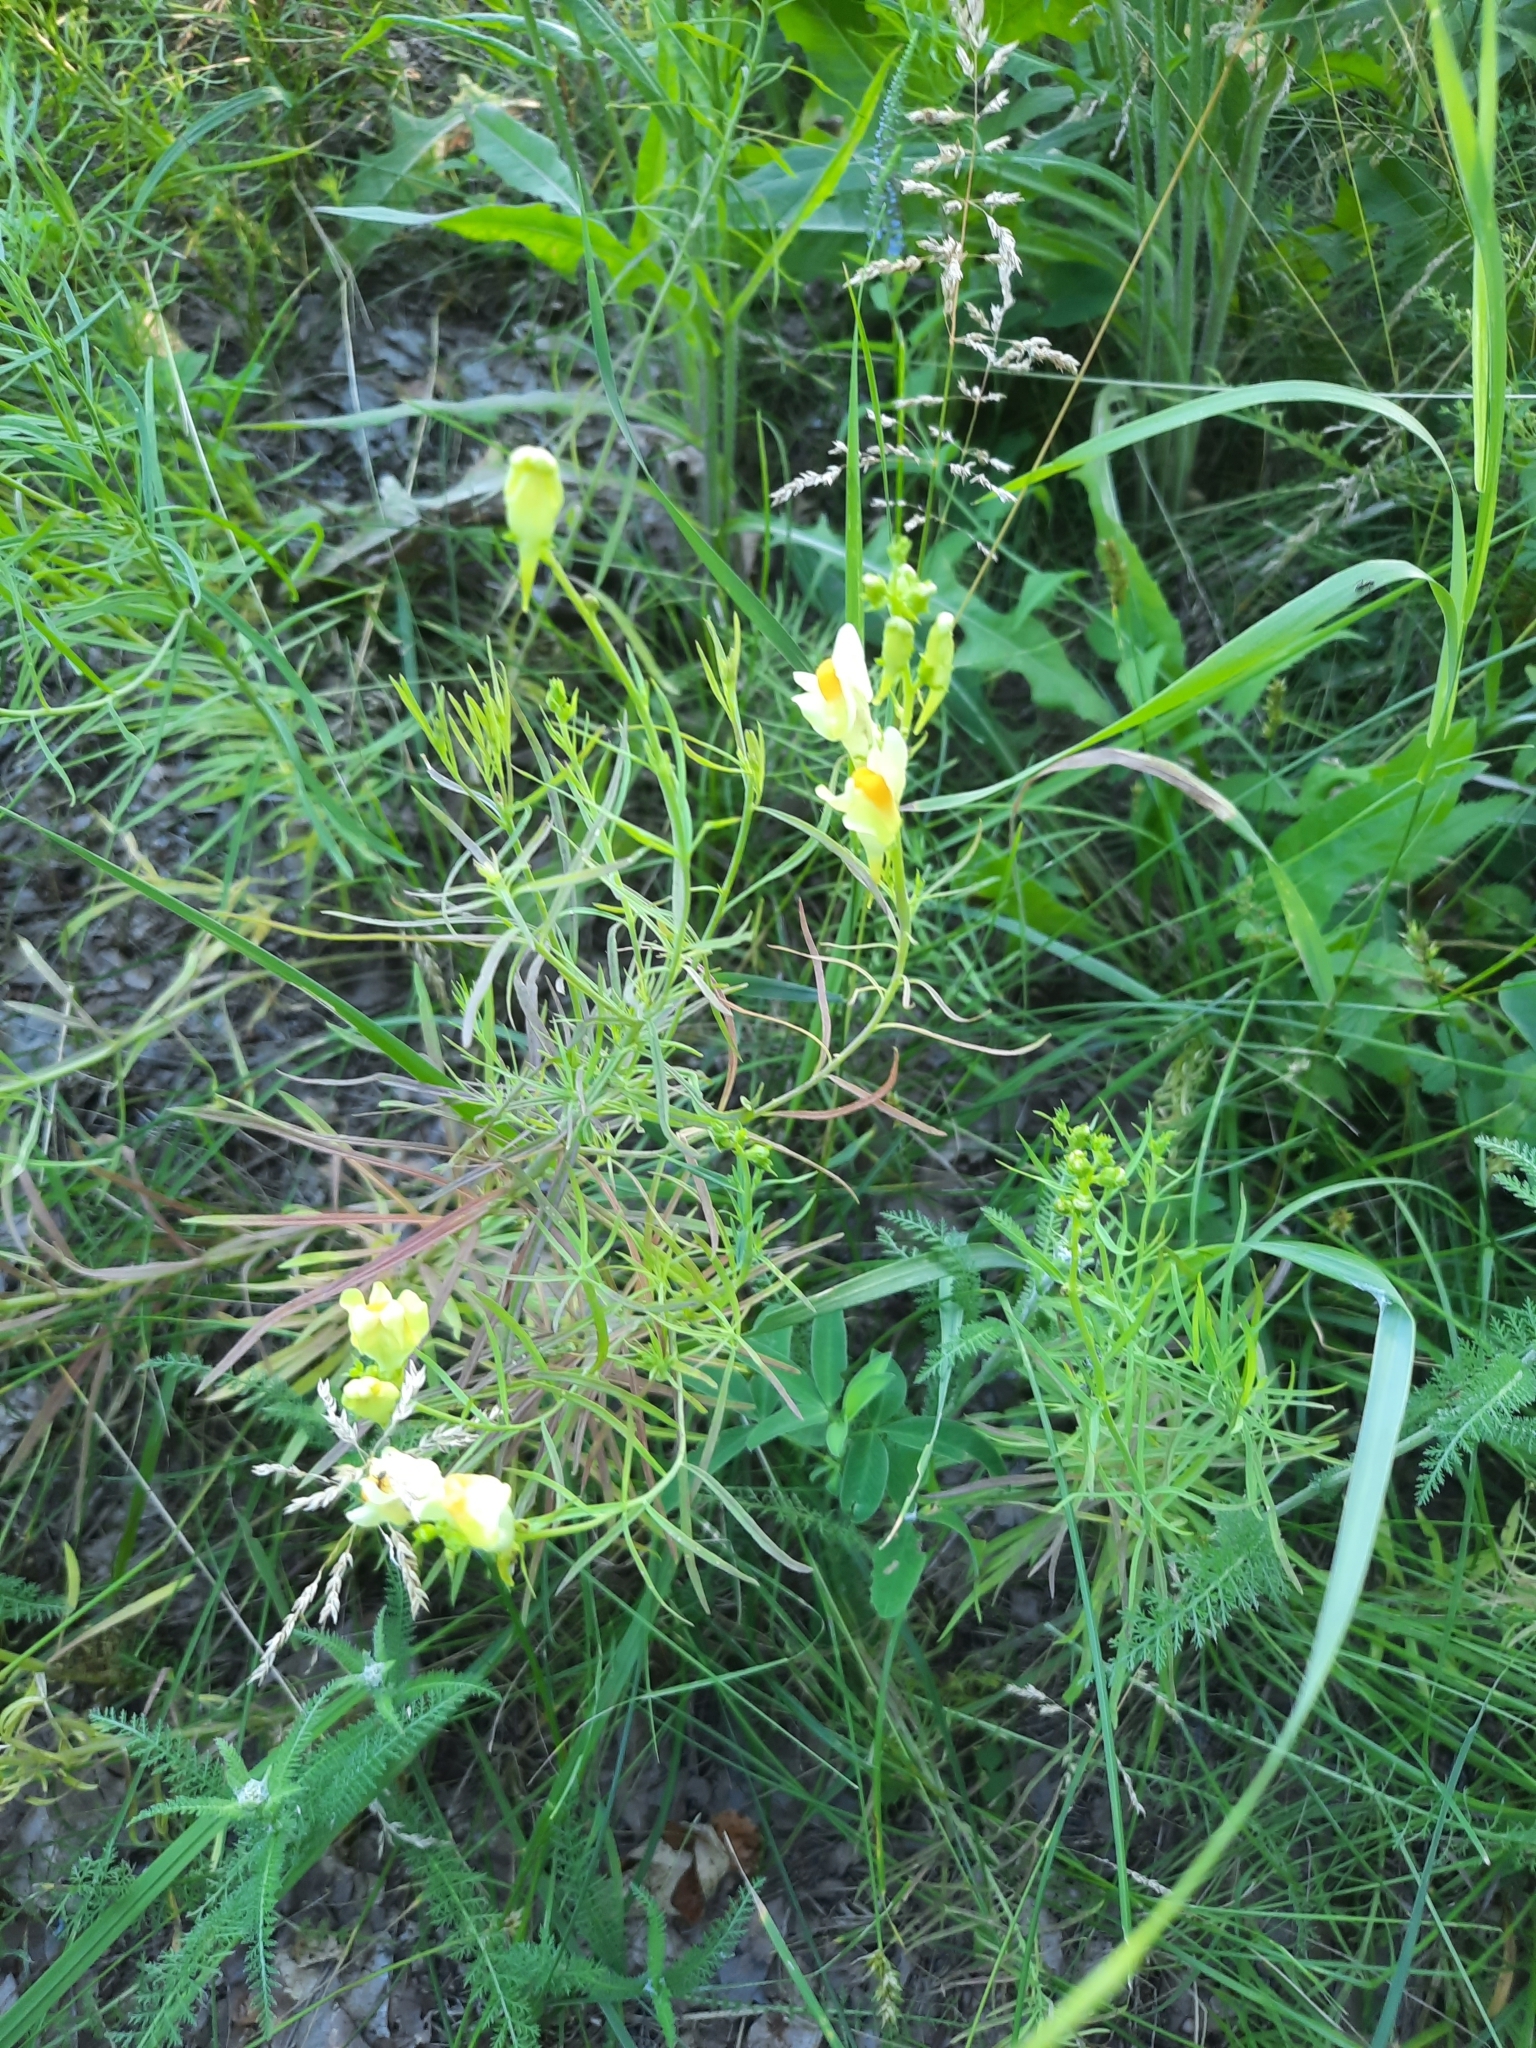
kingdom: Plantae
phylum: Tracheophyta
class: Magnoliopsida
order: Lamiales
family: Plantaginaceae
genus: Linaria
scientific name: Linaria vulgaris
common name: Butter and eggs
